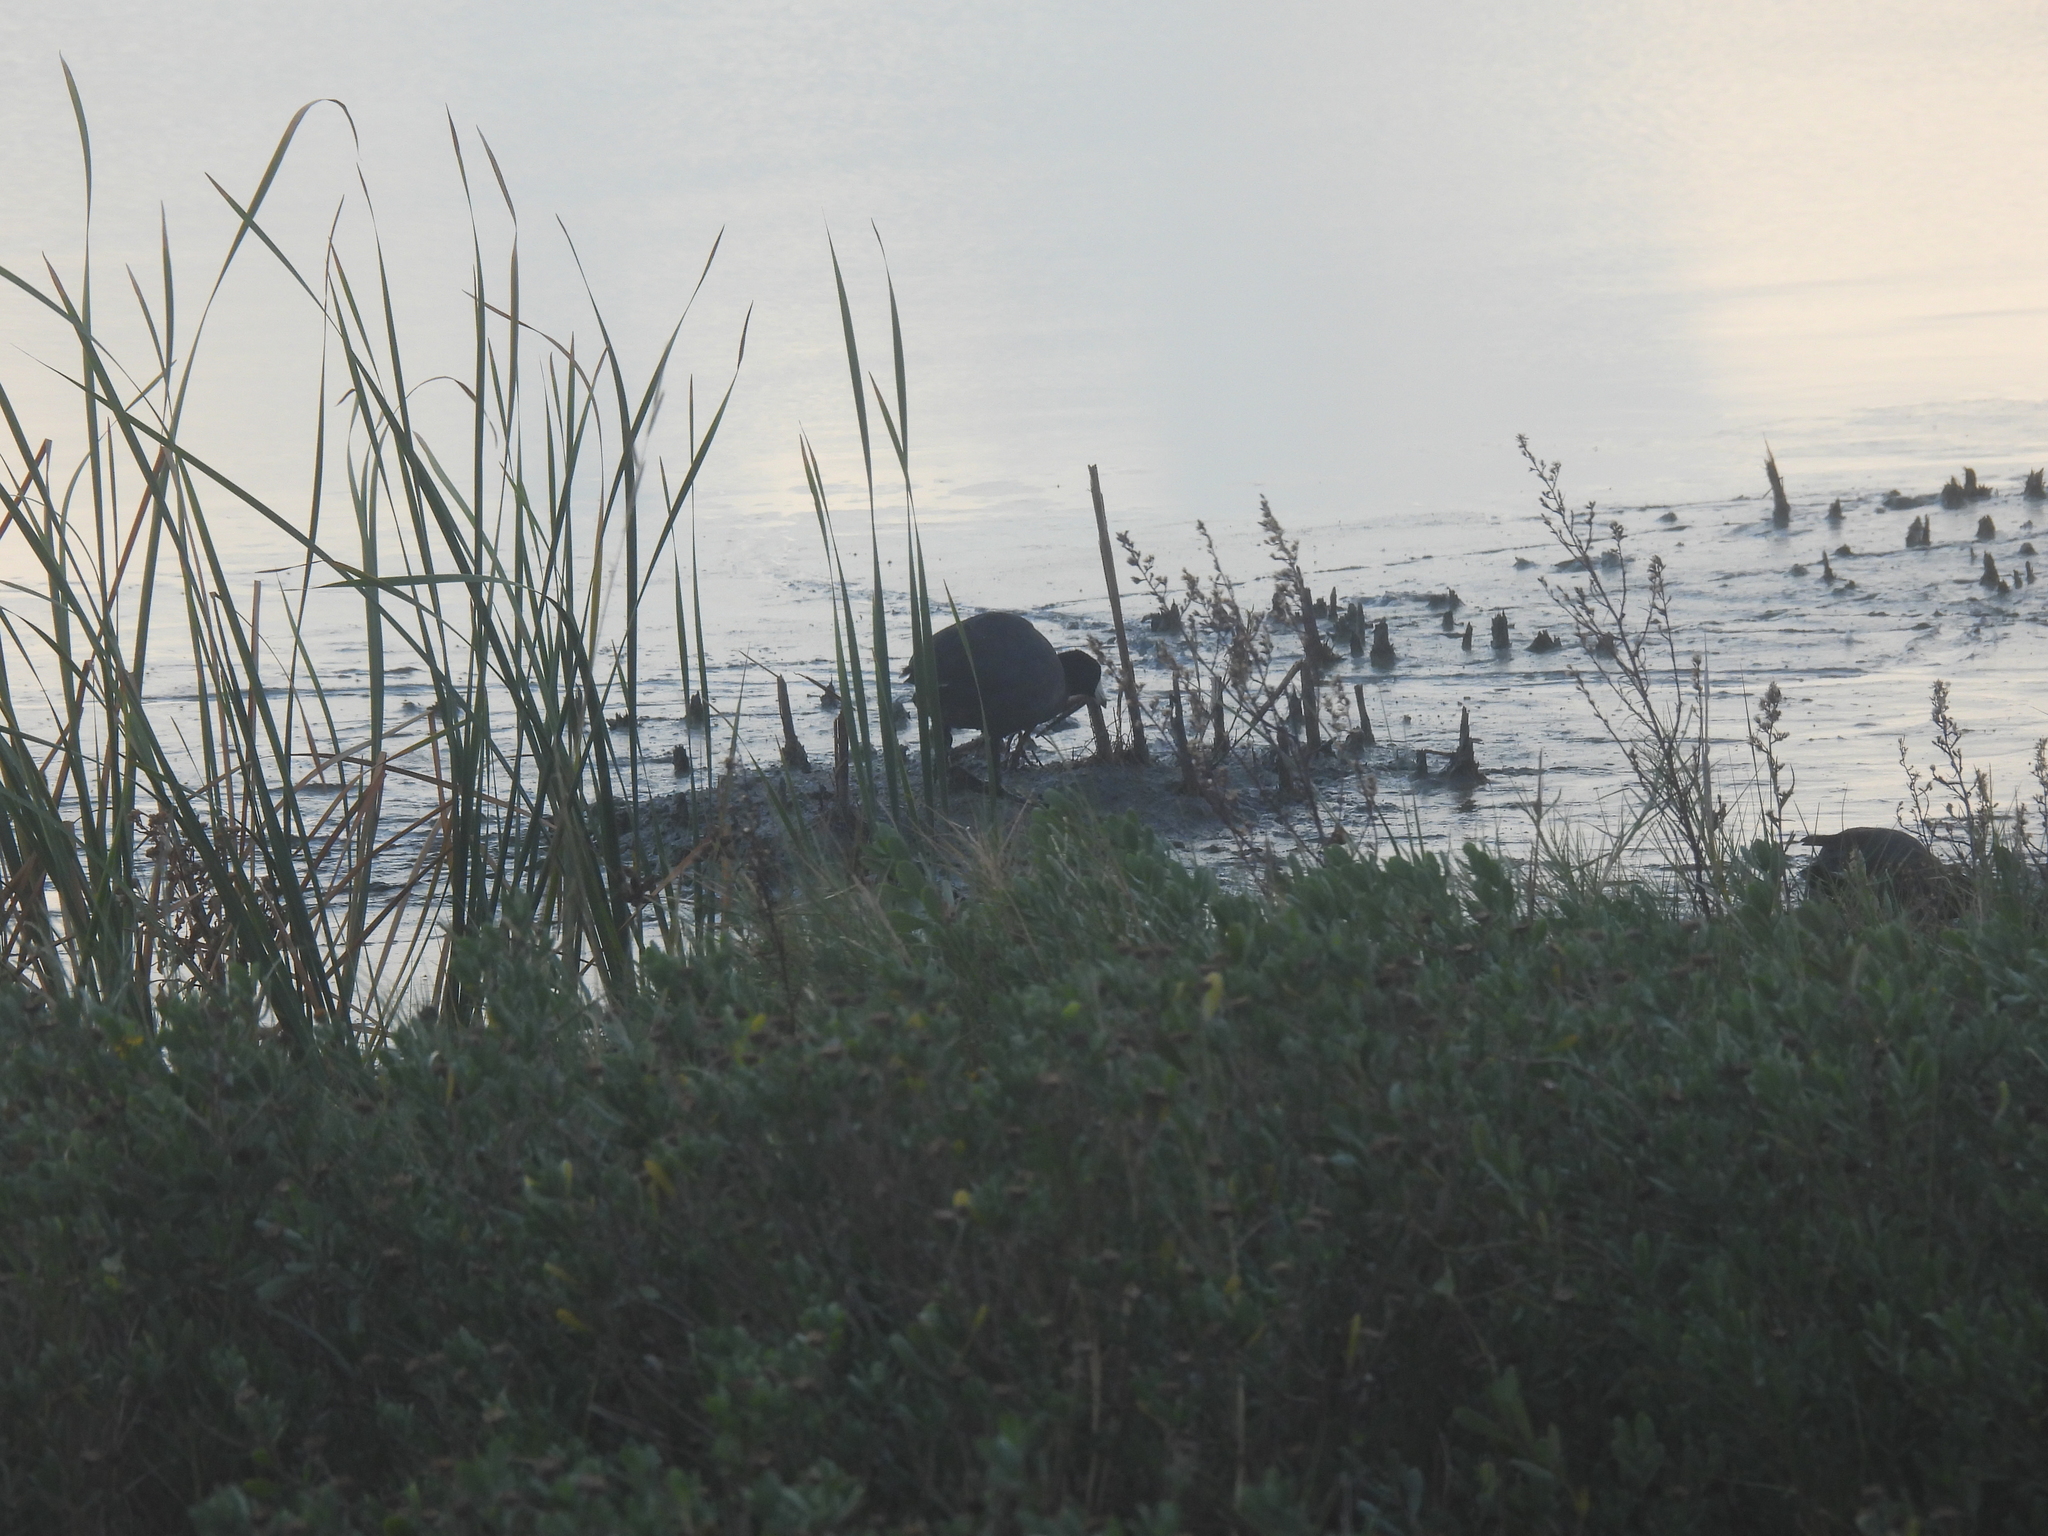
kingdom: Animalia
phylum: Chordata
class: Aves
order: Gruiformes
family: Rallidae
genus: Fulica
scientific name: Fulica americana
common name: American coot
